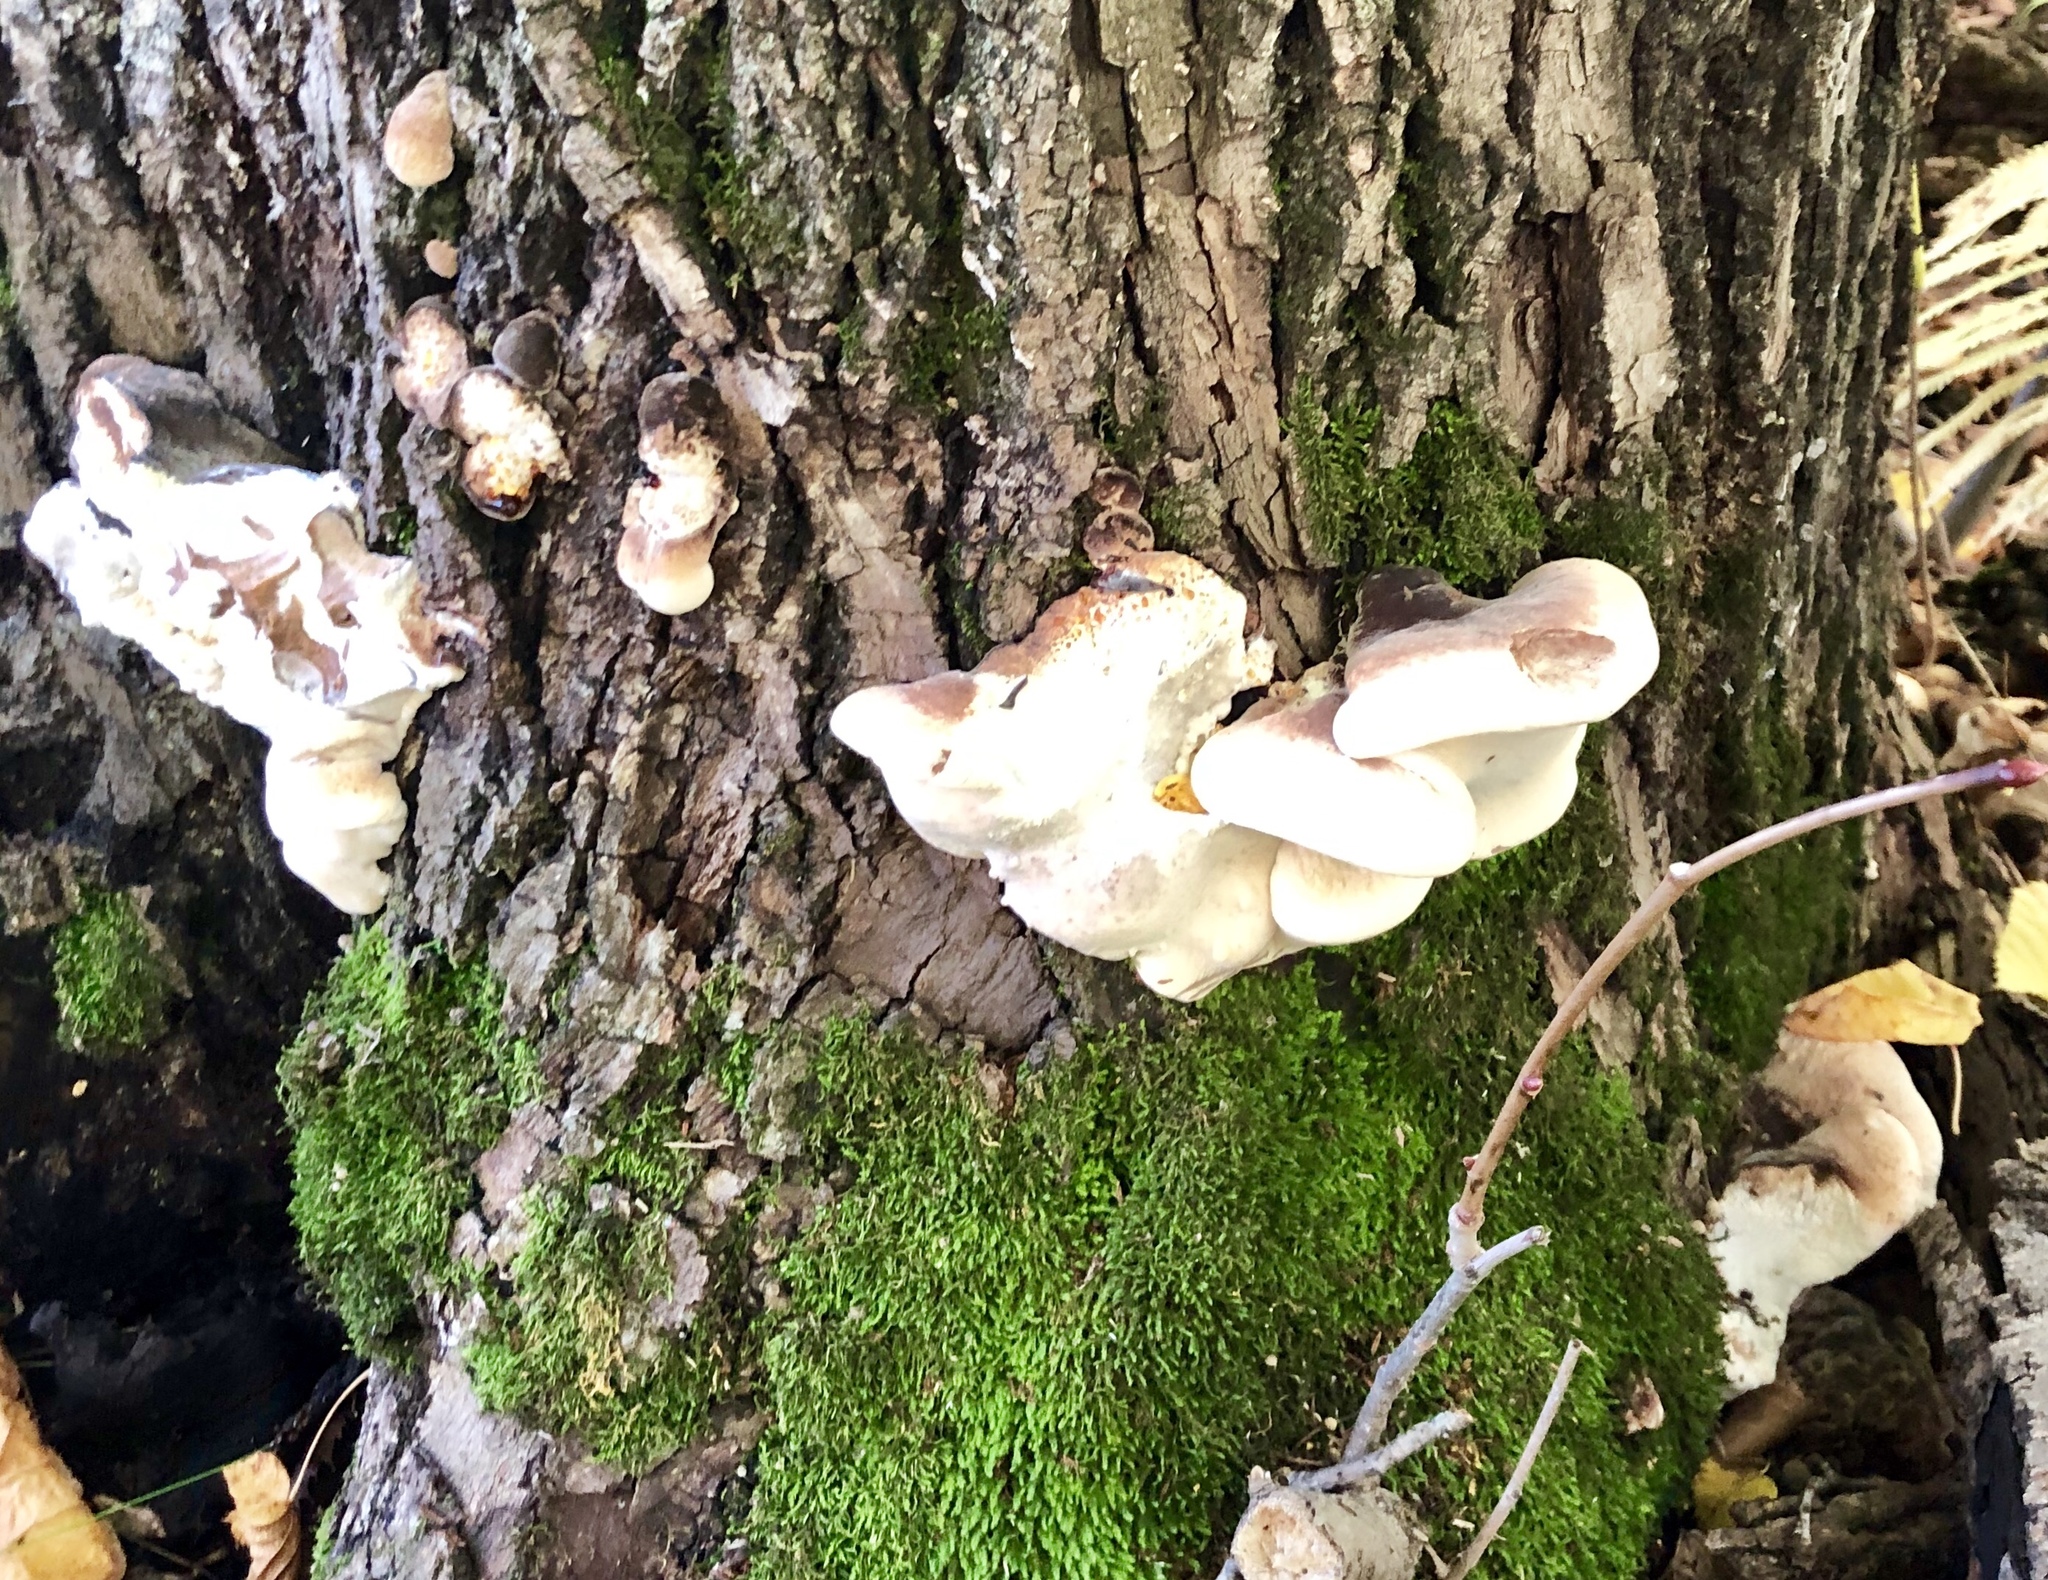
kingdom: Fungi
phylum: Basidiomycota
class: Agaricomycetes
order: Polyporales
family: Ischnodermataceae
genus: Ischnoderma
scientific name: Ischnoderma resinosum
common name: Resinous polypore
